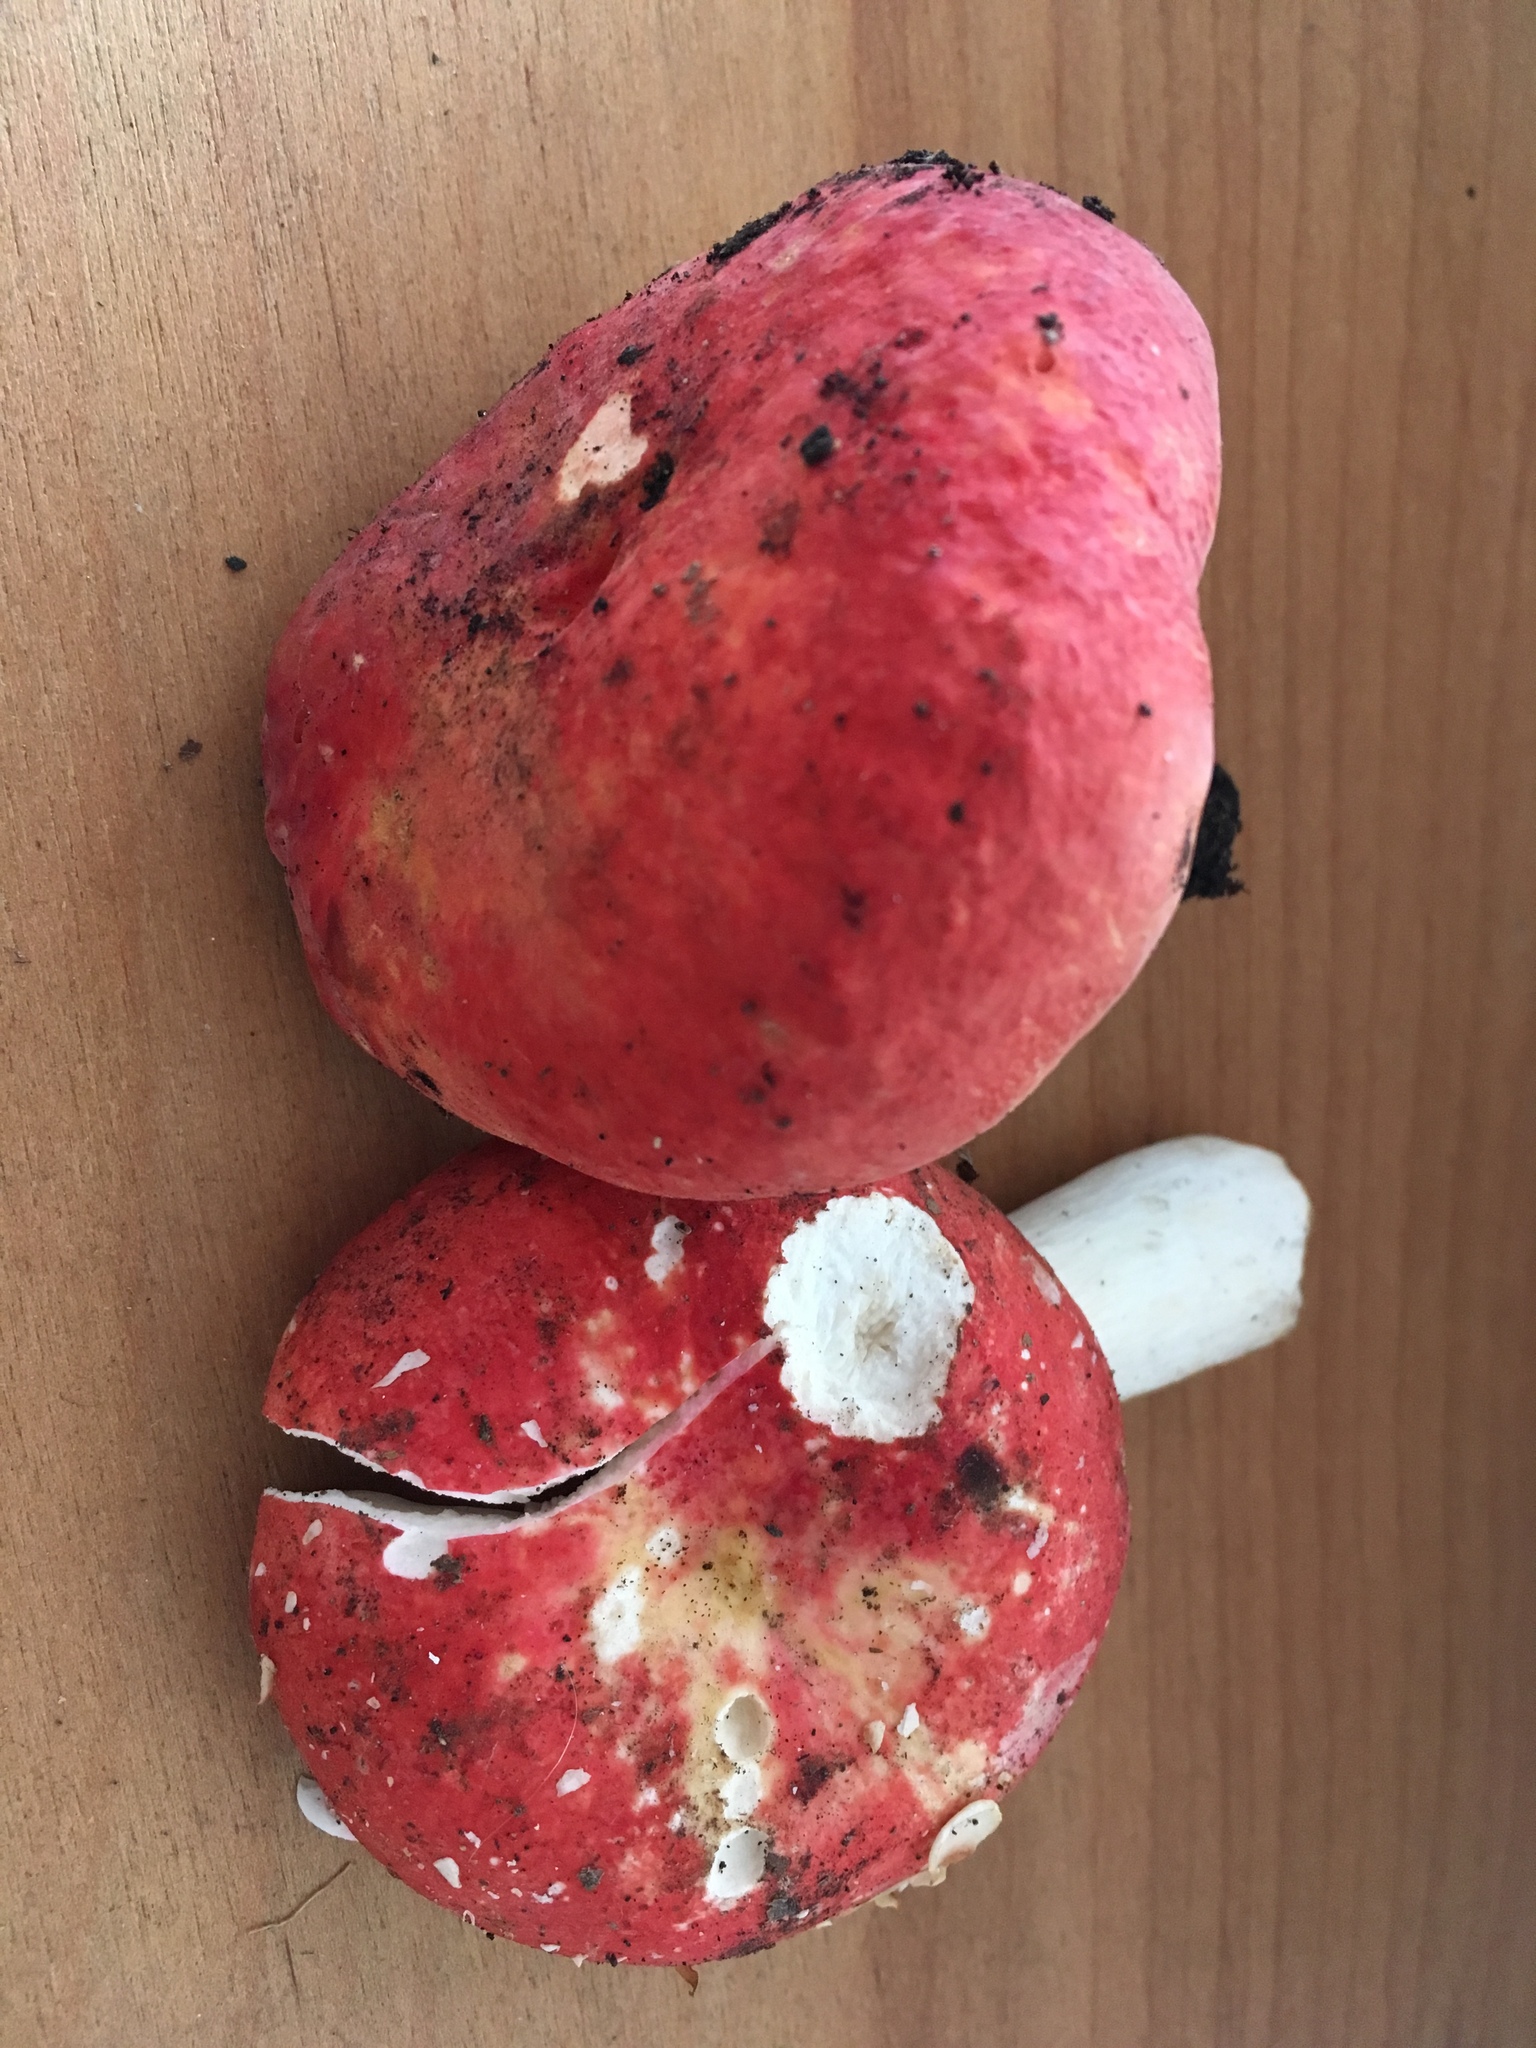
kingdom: Fungi
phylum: Basidiomycota
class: Agaricomycetes
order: Russulales
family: Russulaceae
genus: Russula
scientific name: Russula pseudolepida
